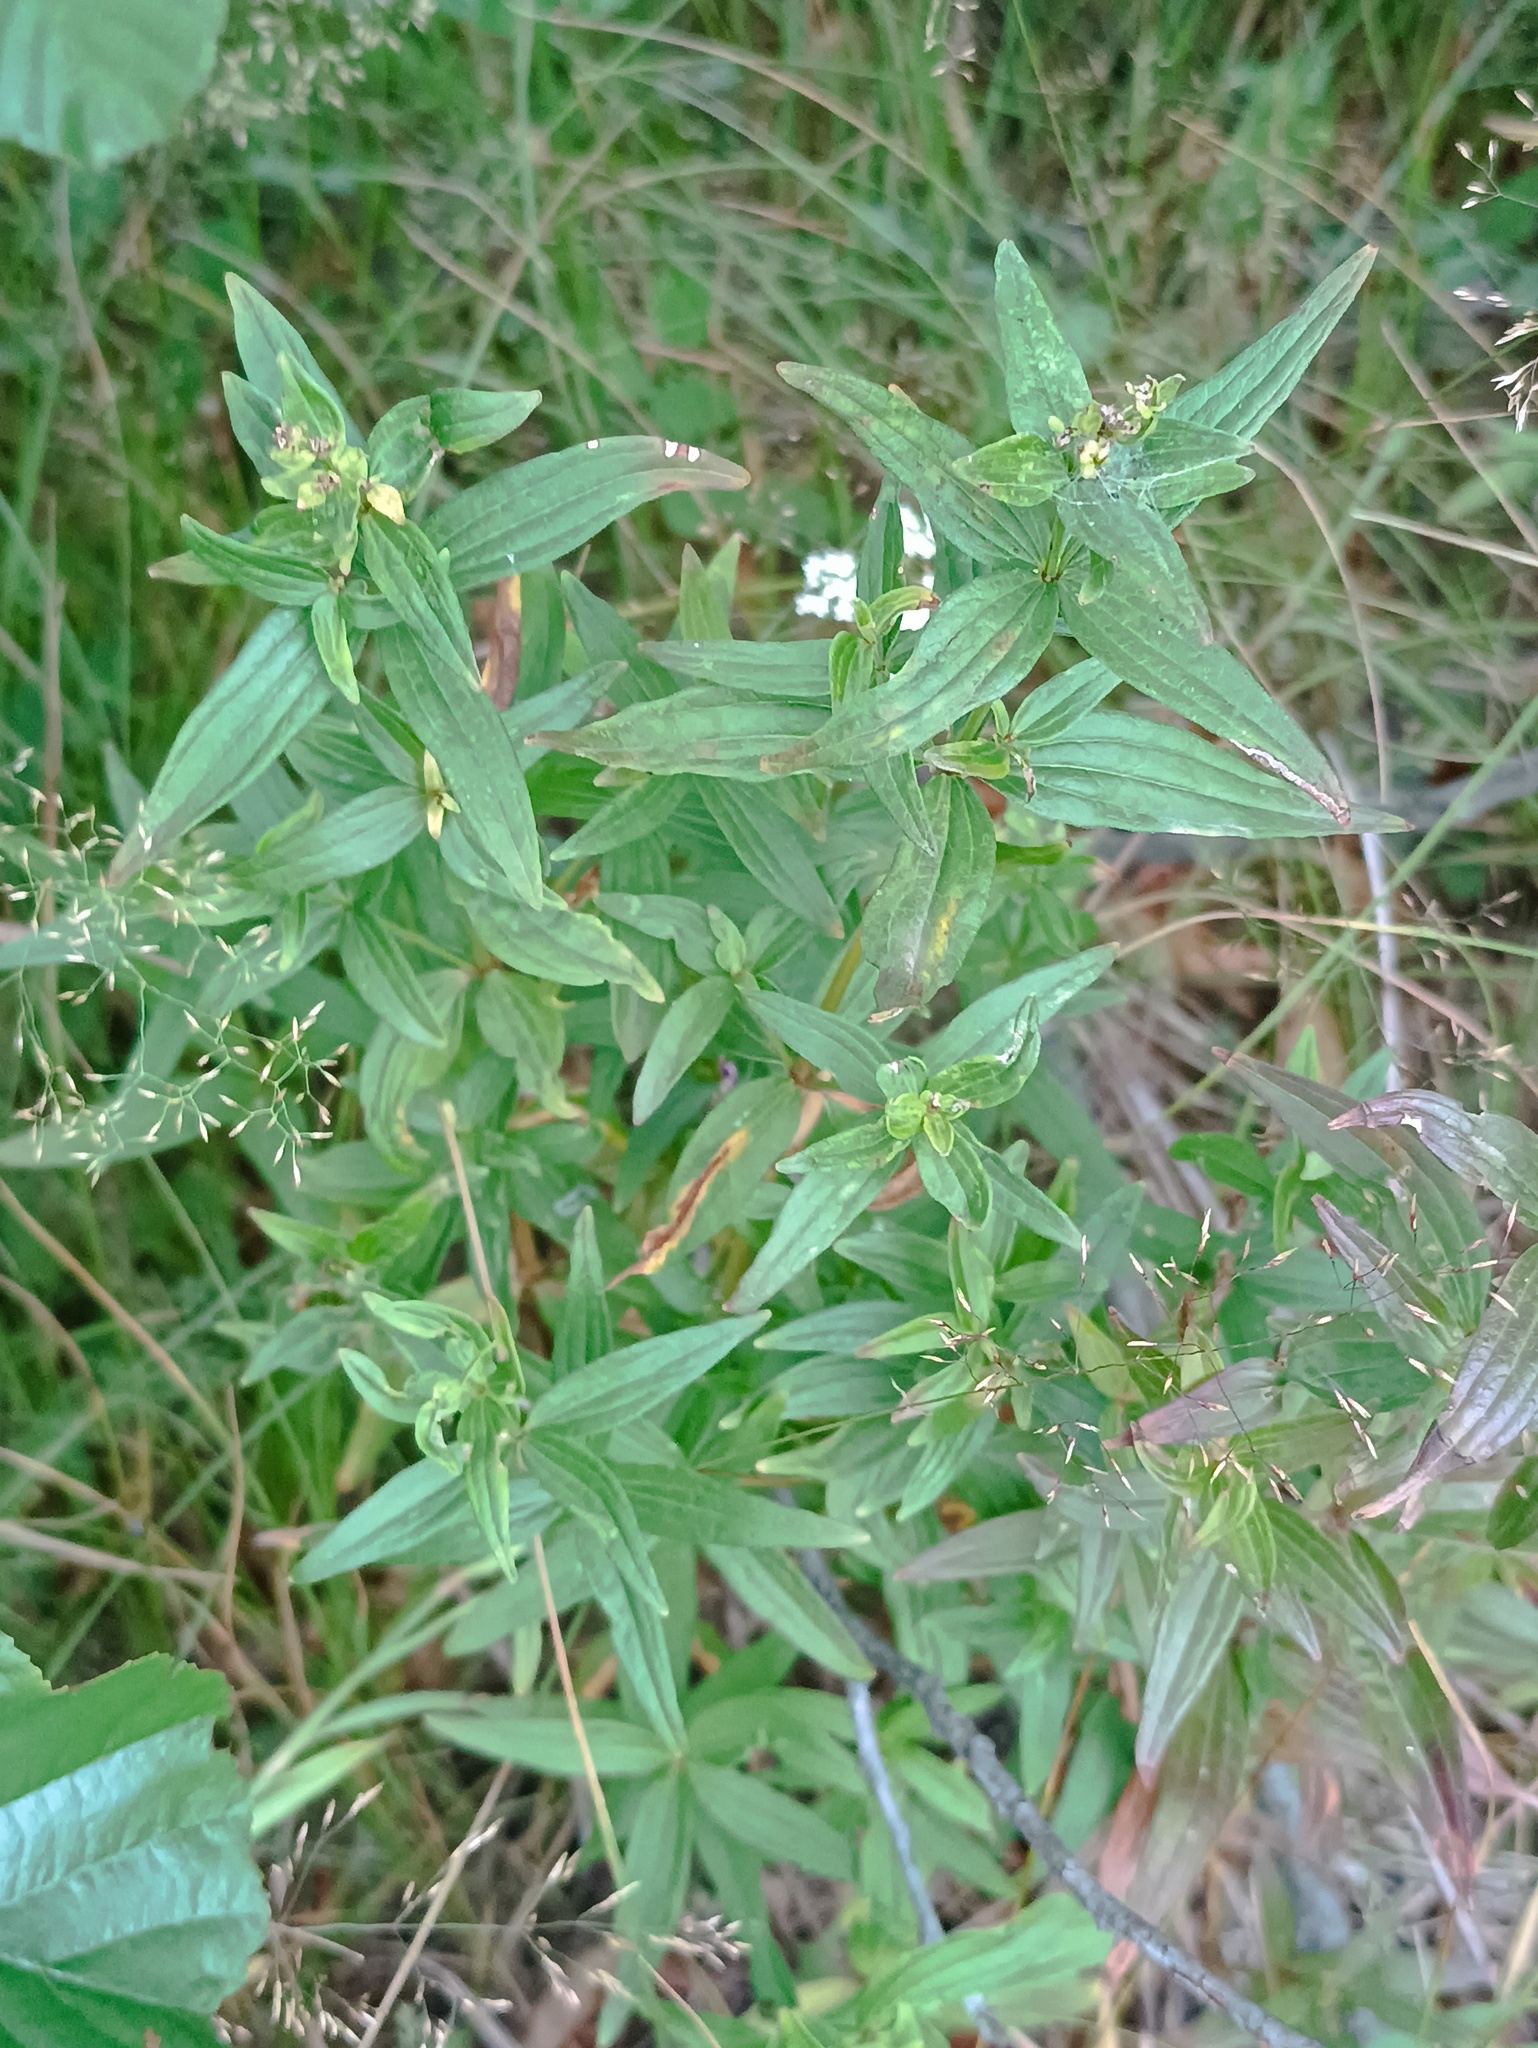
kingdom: Plantae
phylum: Tracheophyta
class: Magnoliopsida
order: Boraginales
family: Boraginaceae
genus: Lithospermum
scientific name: Lithospermum officinale
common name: Common gromwell
